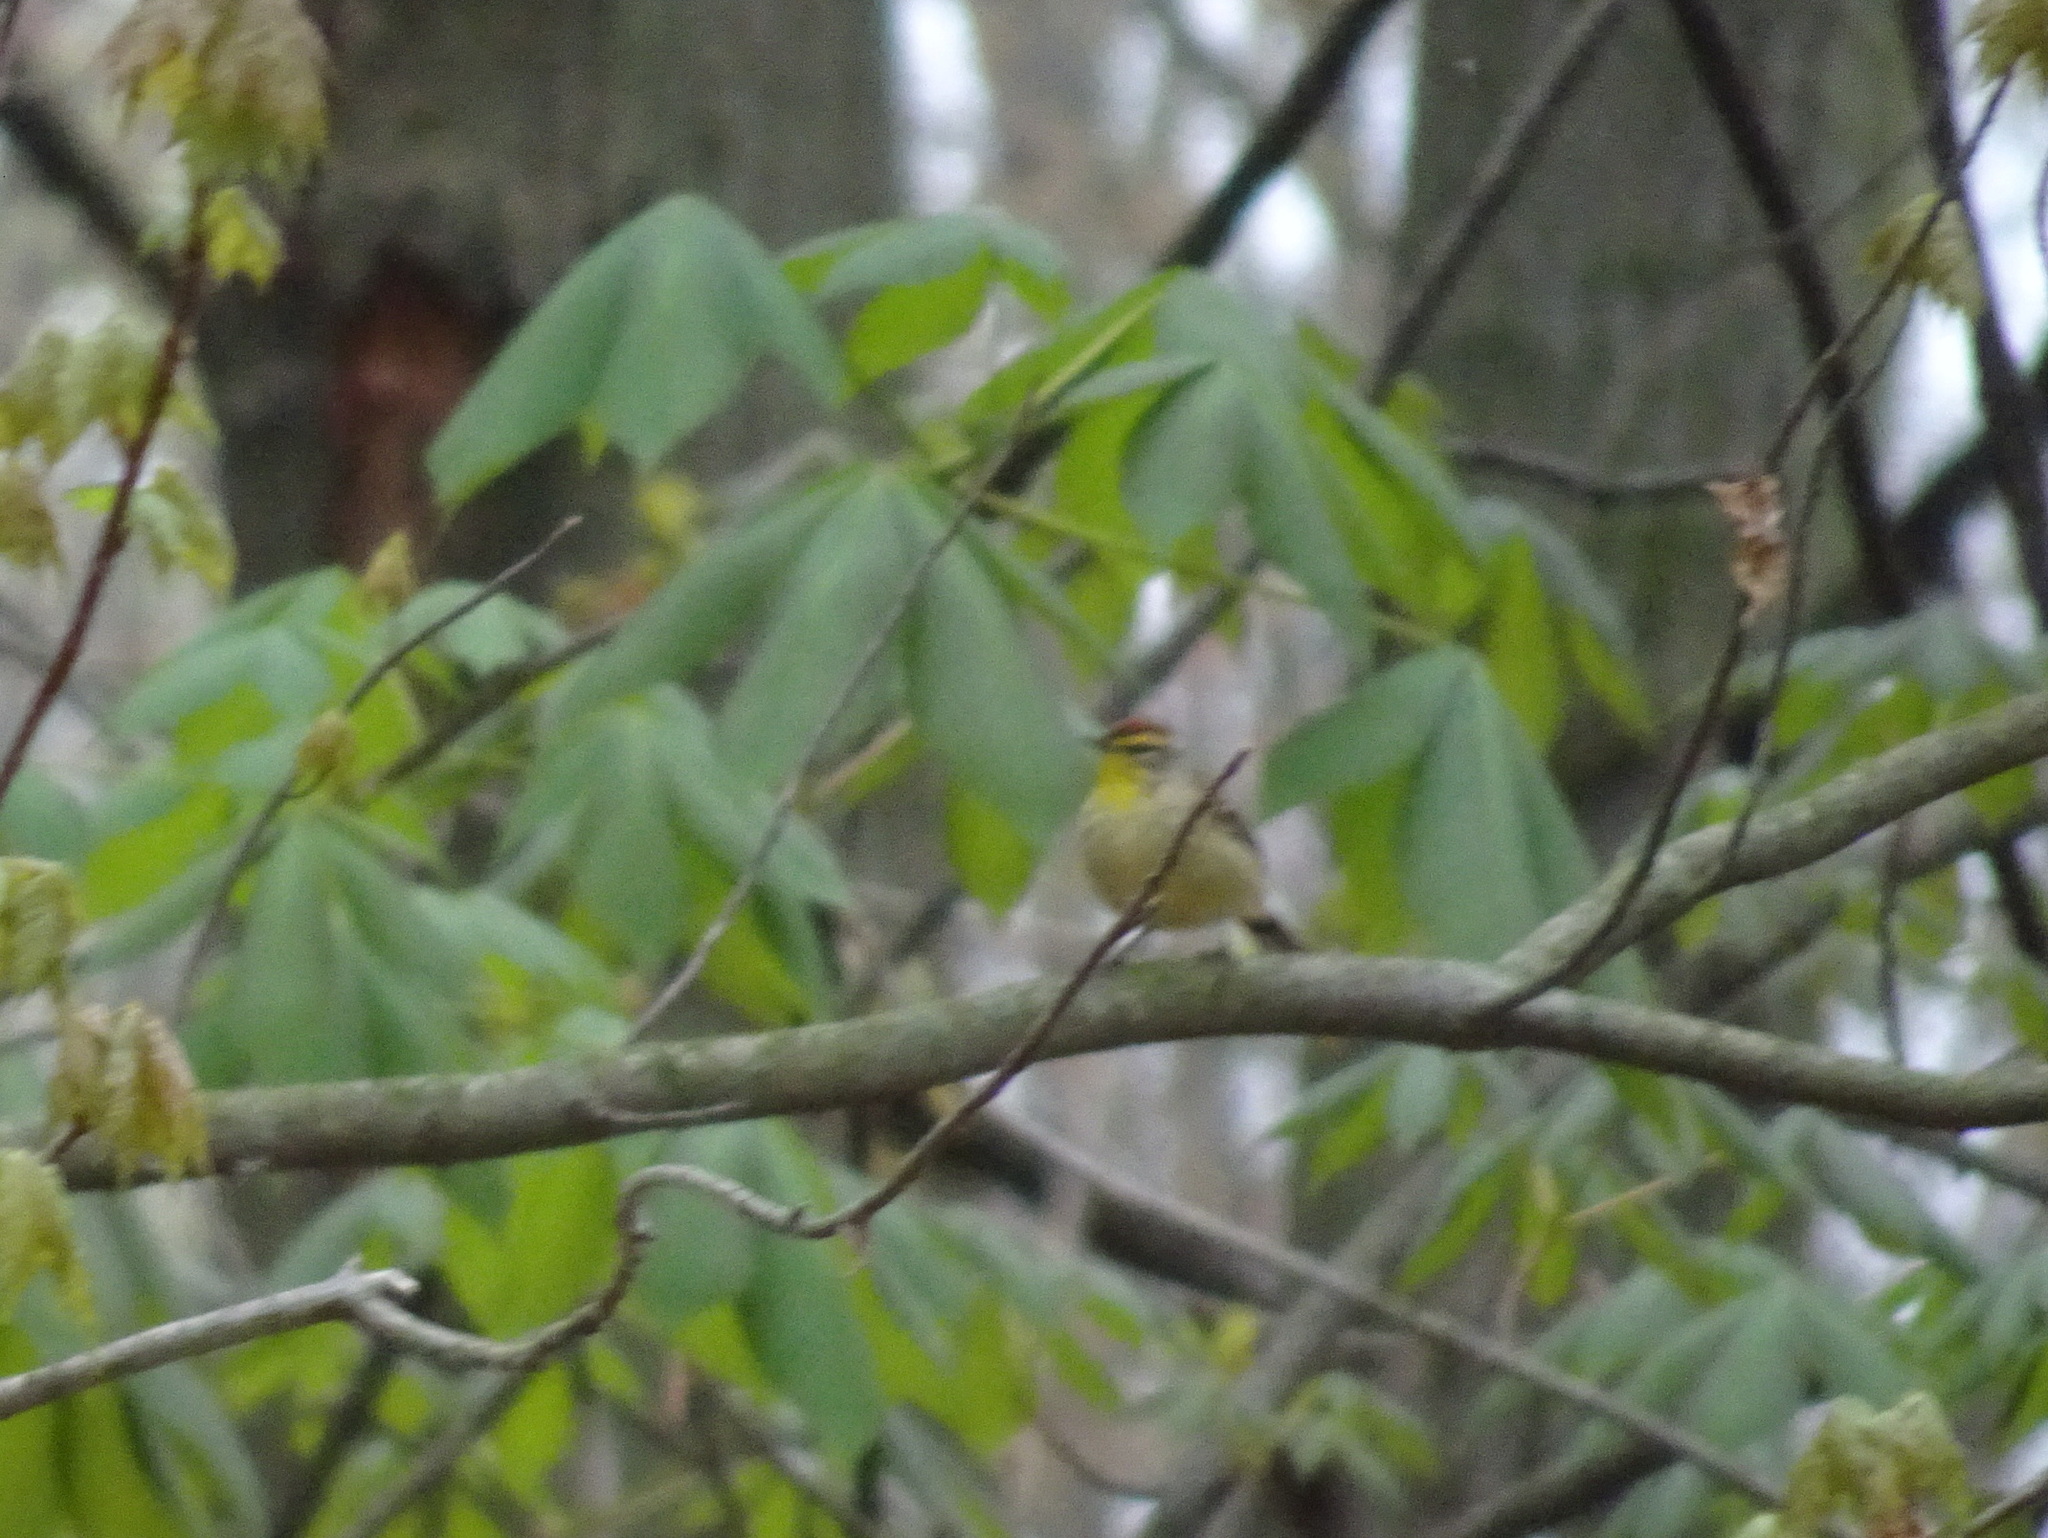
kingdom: Animalia
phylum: Chordata
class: Aves
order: Passeriformes
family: Parulidae
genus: Setophaga
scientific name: Setophaga palmarum
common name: Palm warbler
